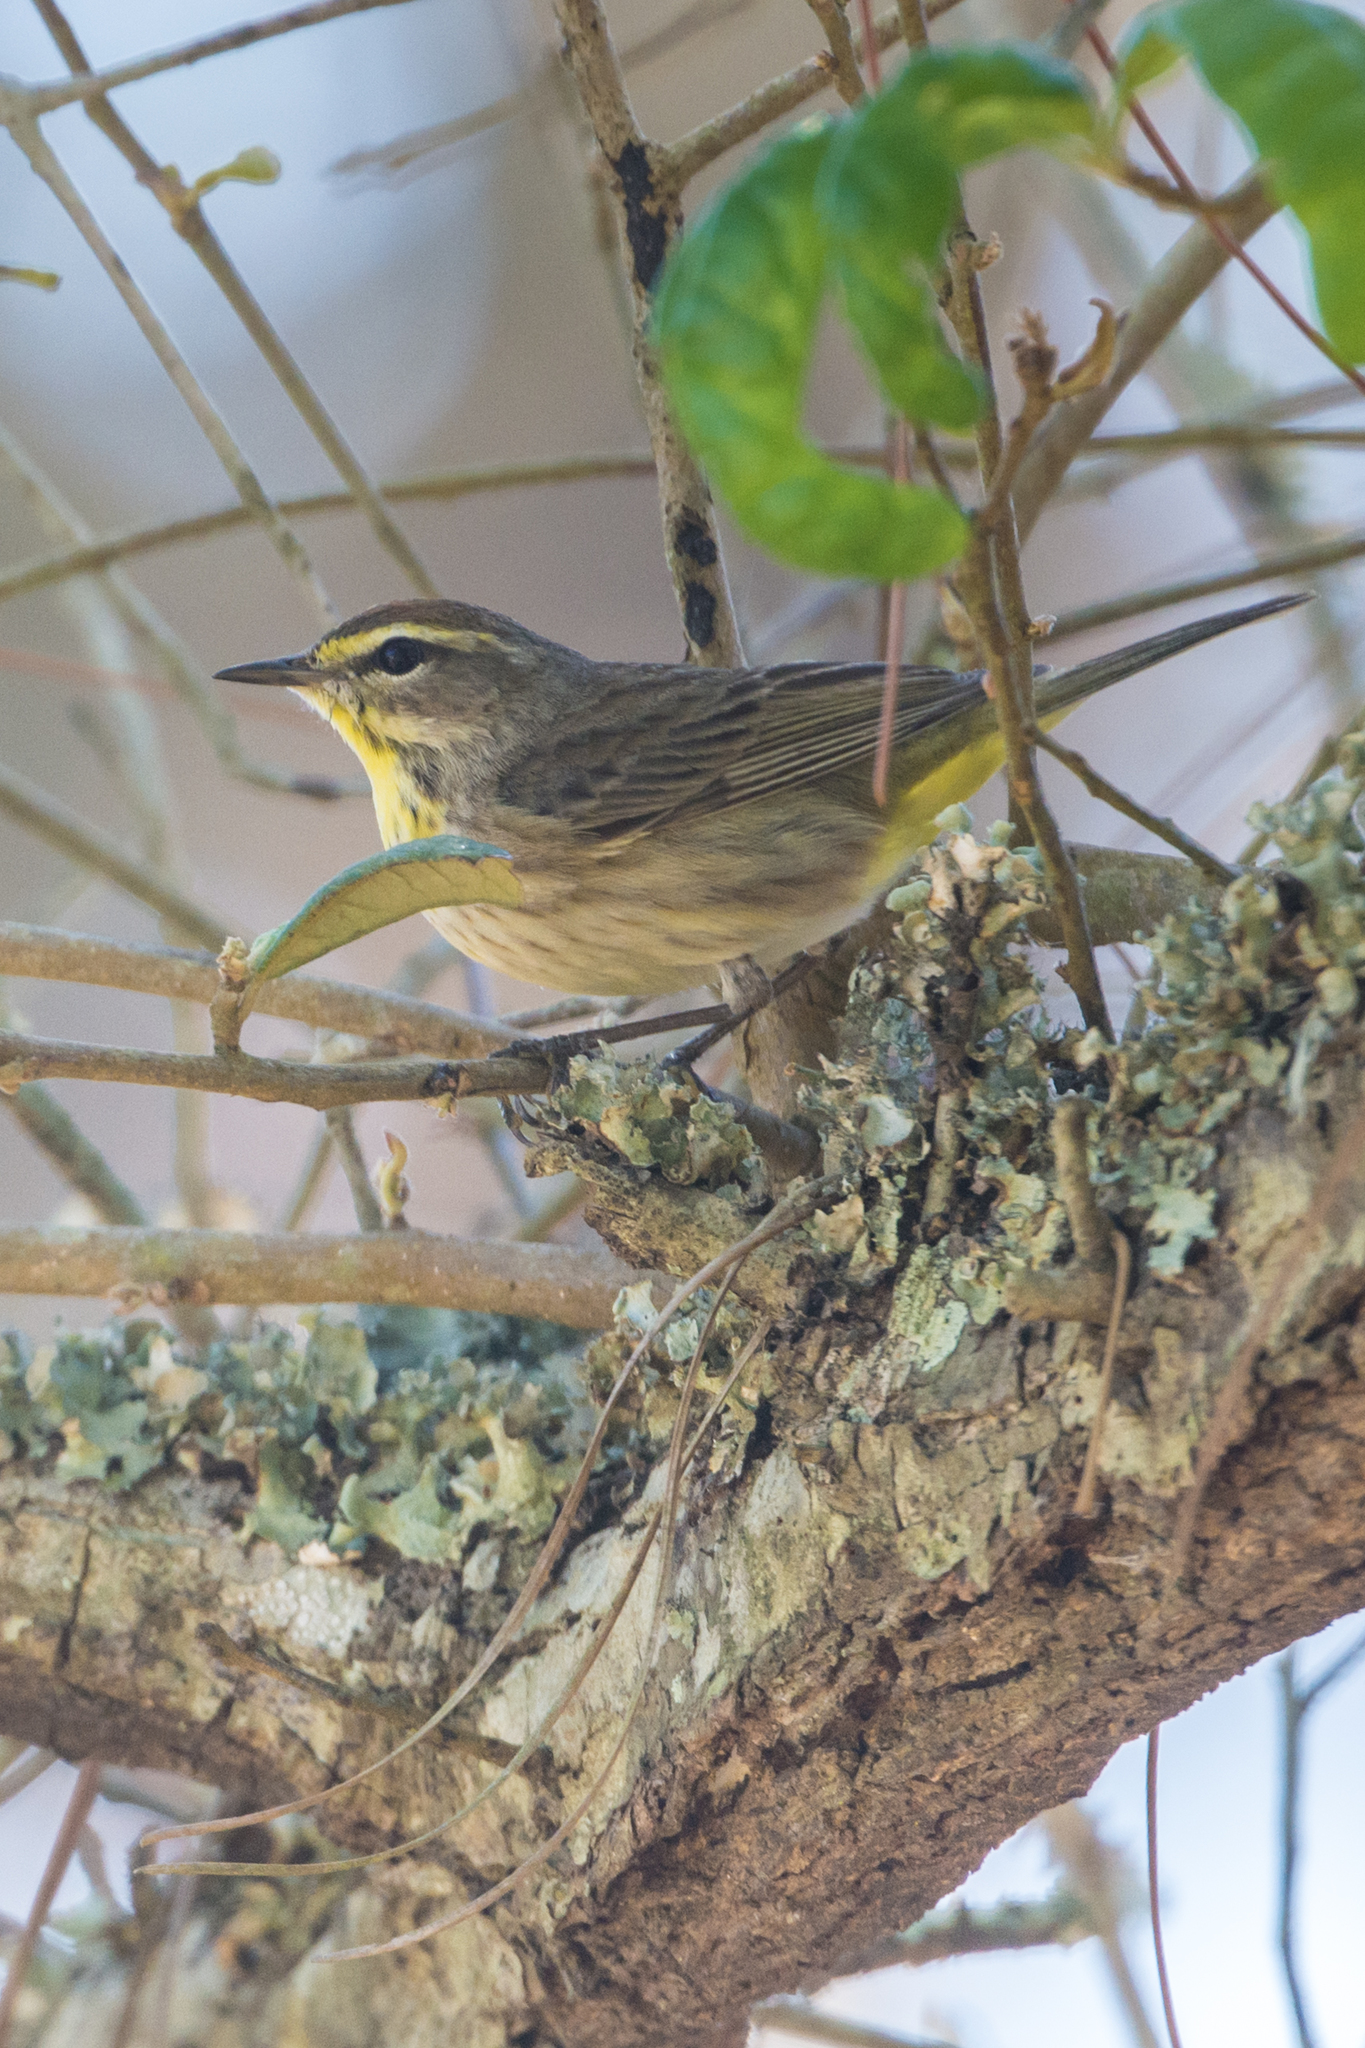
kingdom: Animalia
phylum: Chordata
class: Aves
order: Passeriformes
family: Parulidae
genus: Setophaga
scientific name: Setophaga palmarum
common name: Palm warbler
